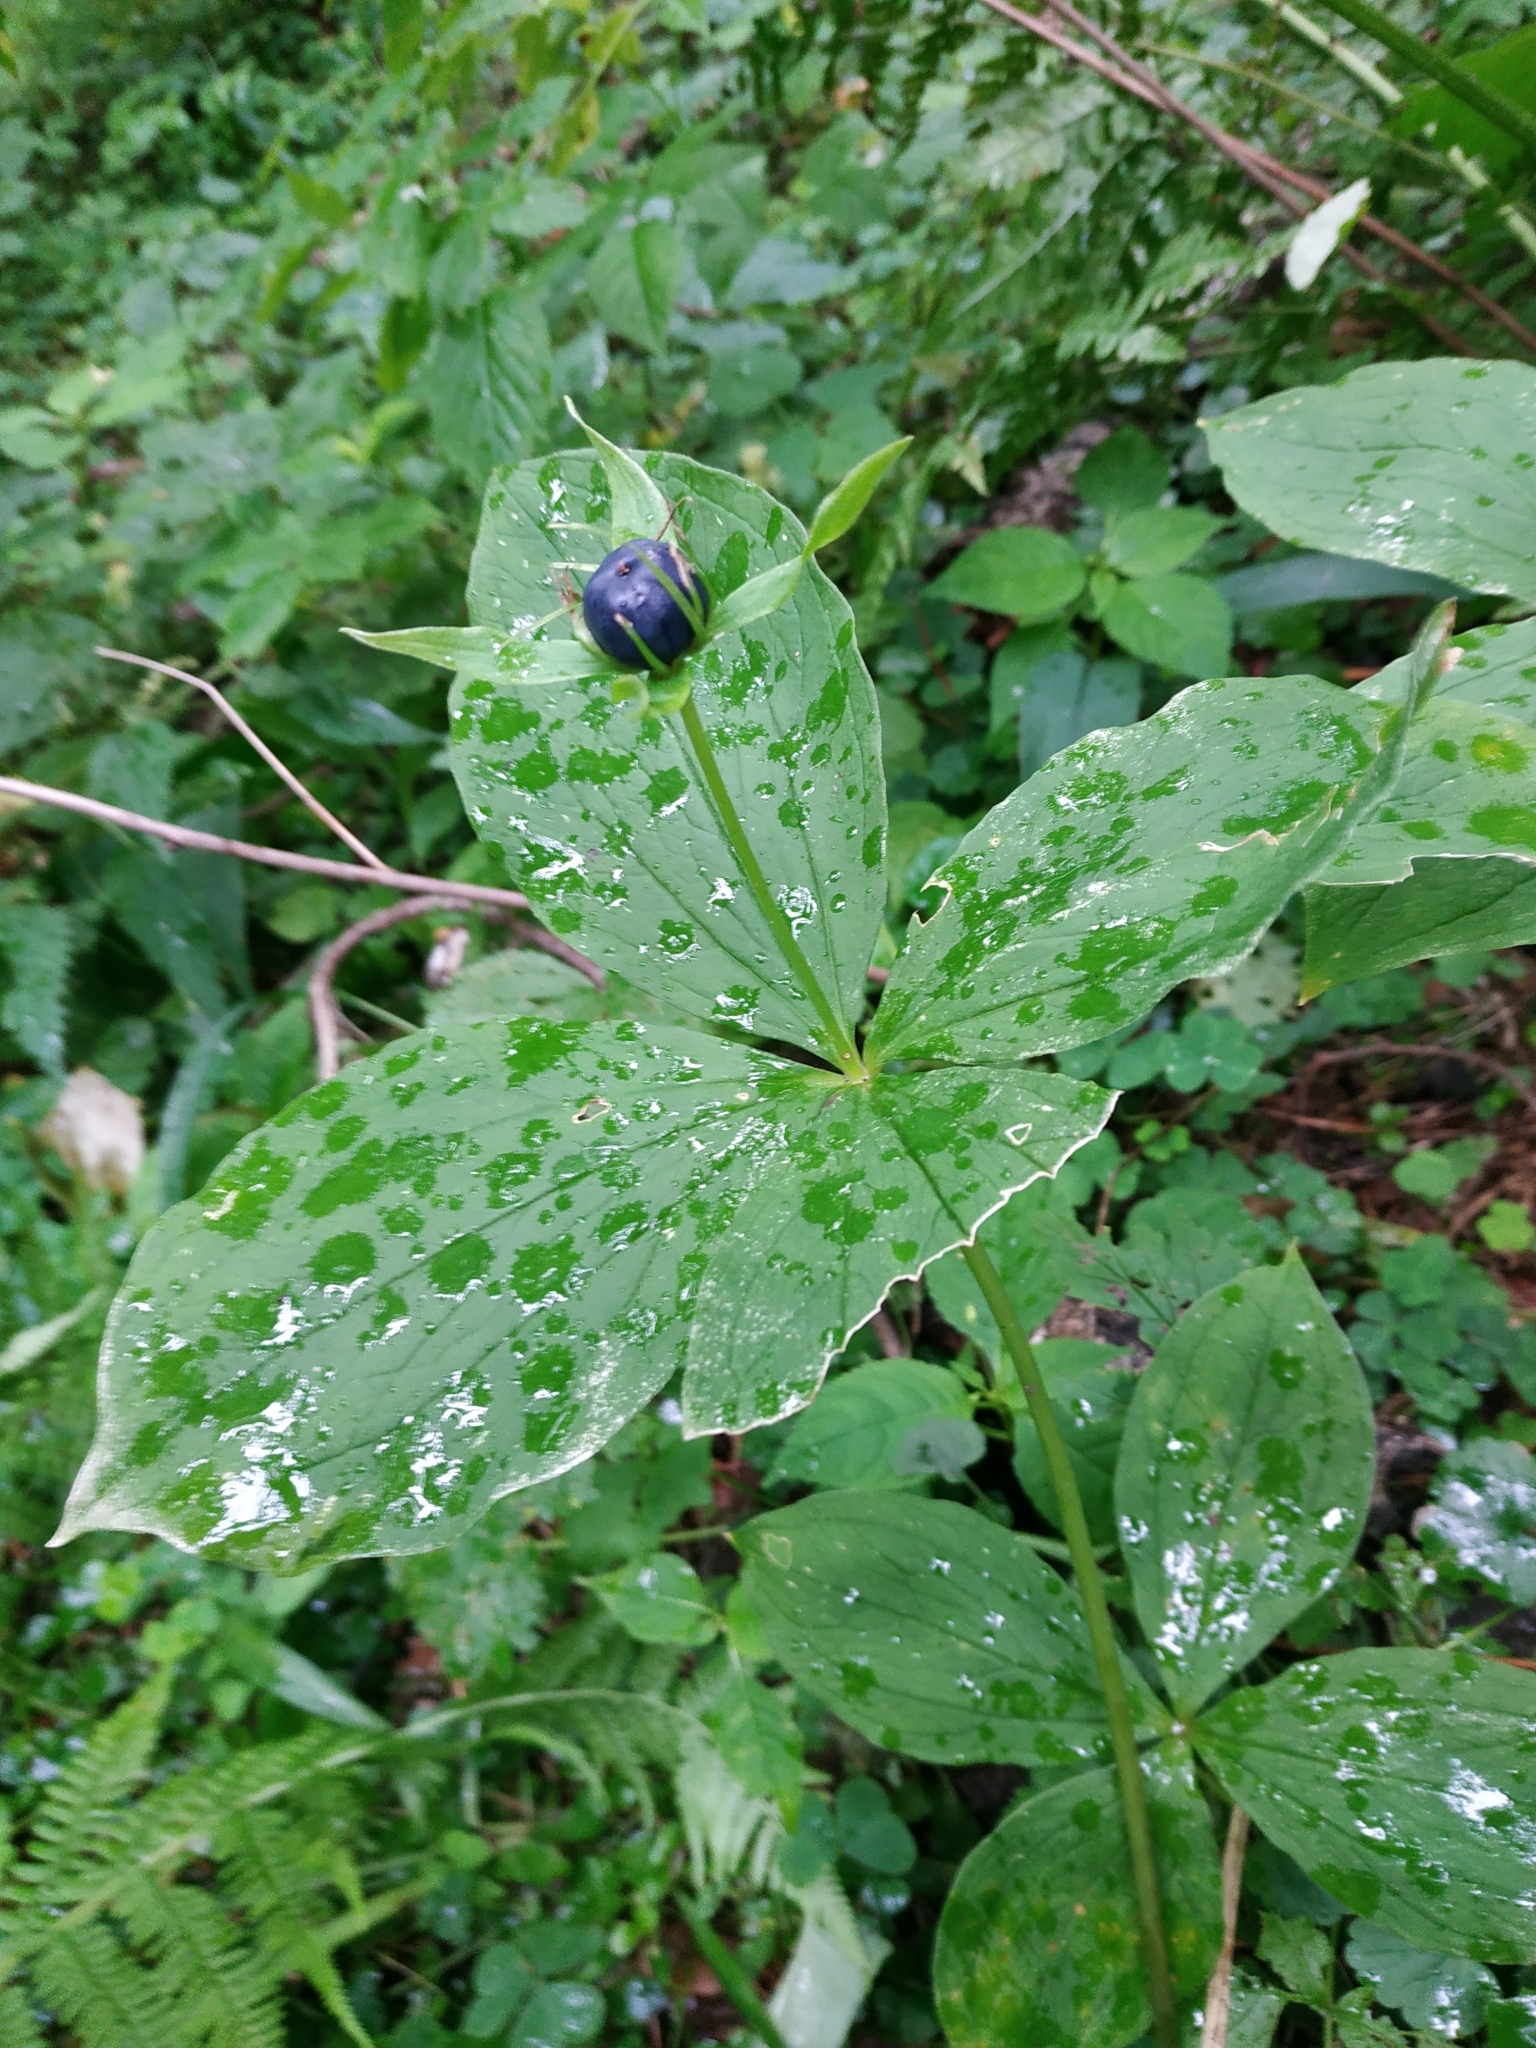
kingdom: Plantae
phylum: Tracheophyta
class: Liliopsida
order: Liliales
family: Melanthiaceae
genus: Paris
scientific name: Paris quadrifolia
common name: Herb-paris
